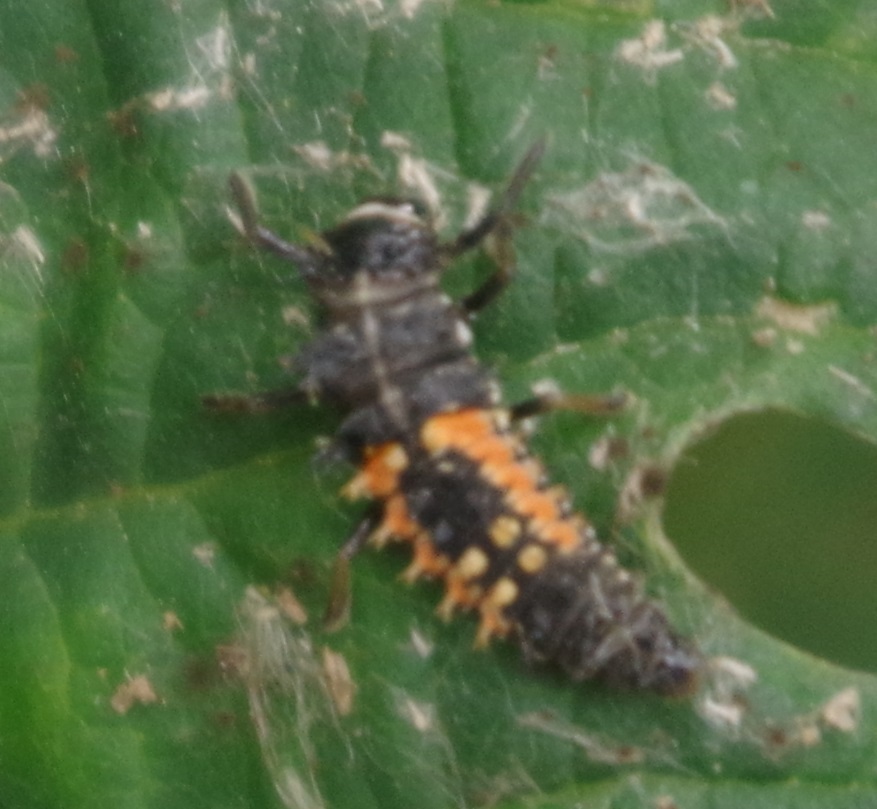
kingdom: Animalia
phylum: Arthropoda
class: Insecta
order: Coleoptera
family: Coccinellidae
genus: Harmonia
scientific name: Harmonia axyridis
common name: Harlequin ladybird
